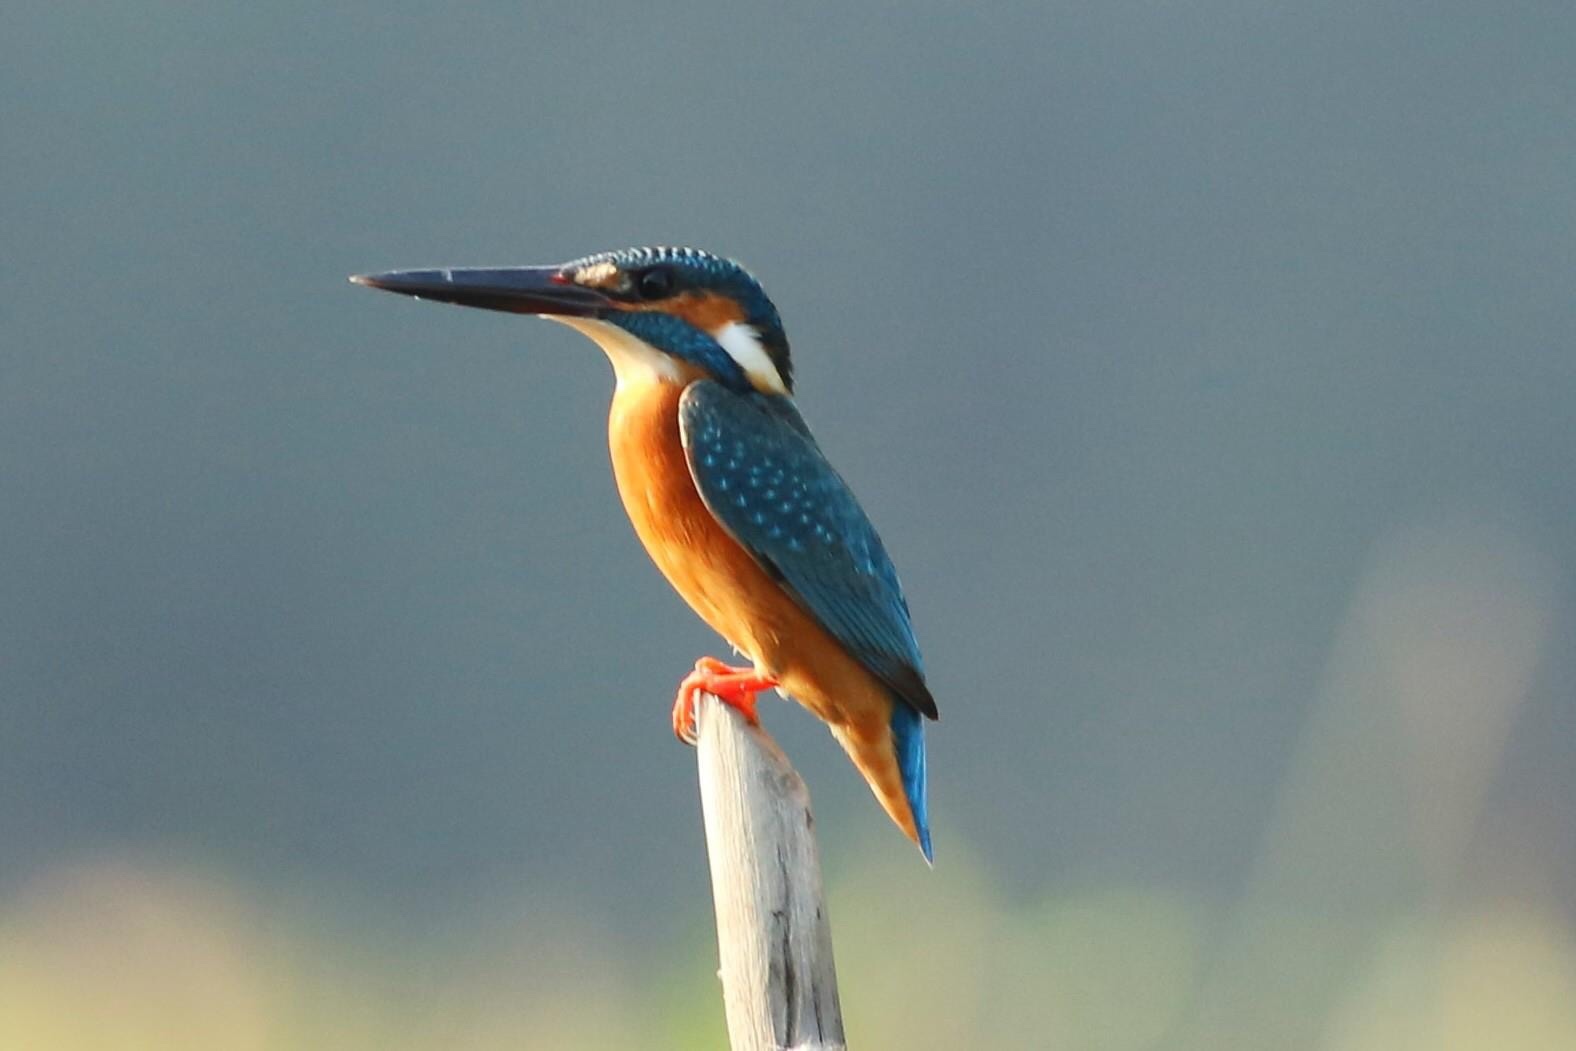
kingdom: Animalia
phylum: Chordata
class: Aves
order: Coraciiformes
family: Alcedinidae
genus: Alcedo
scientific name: Alcedo atthis
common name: Common kingfisher
